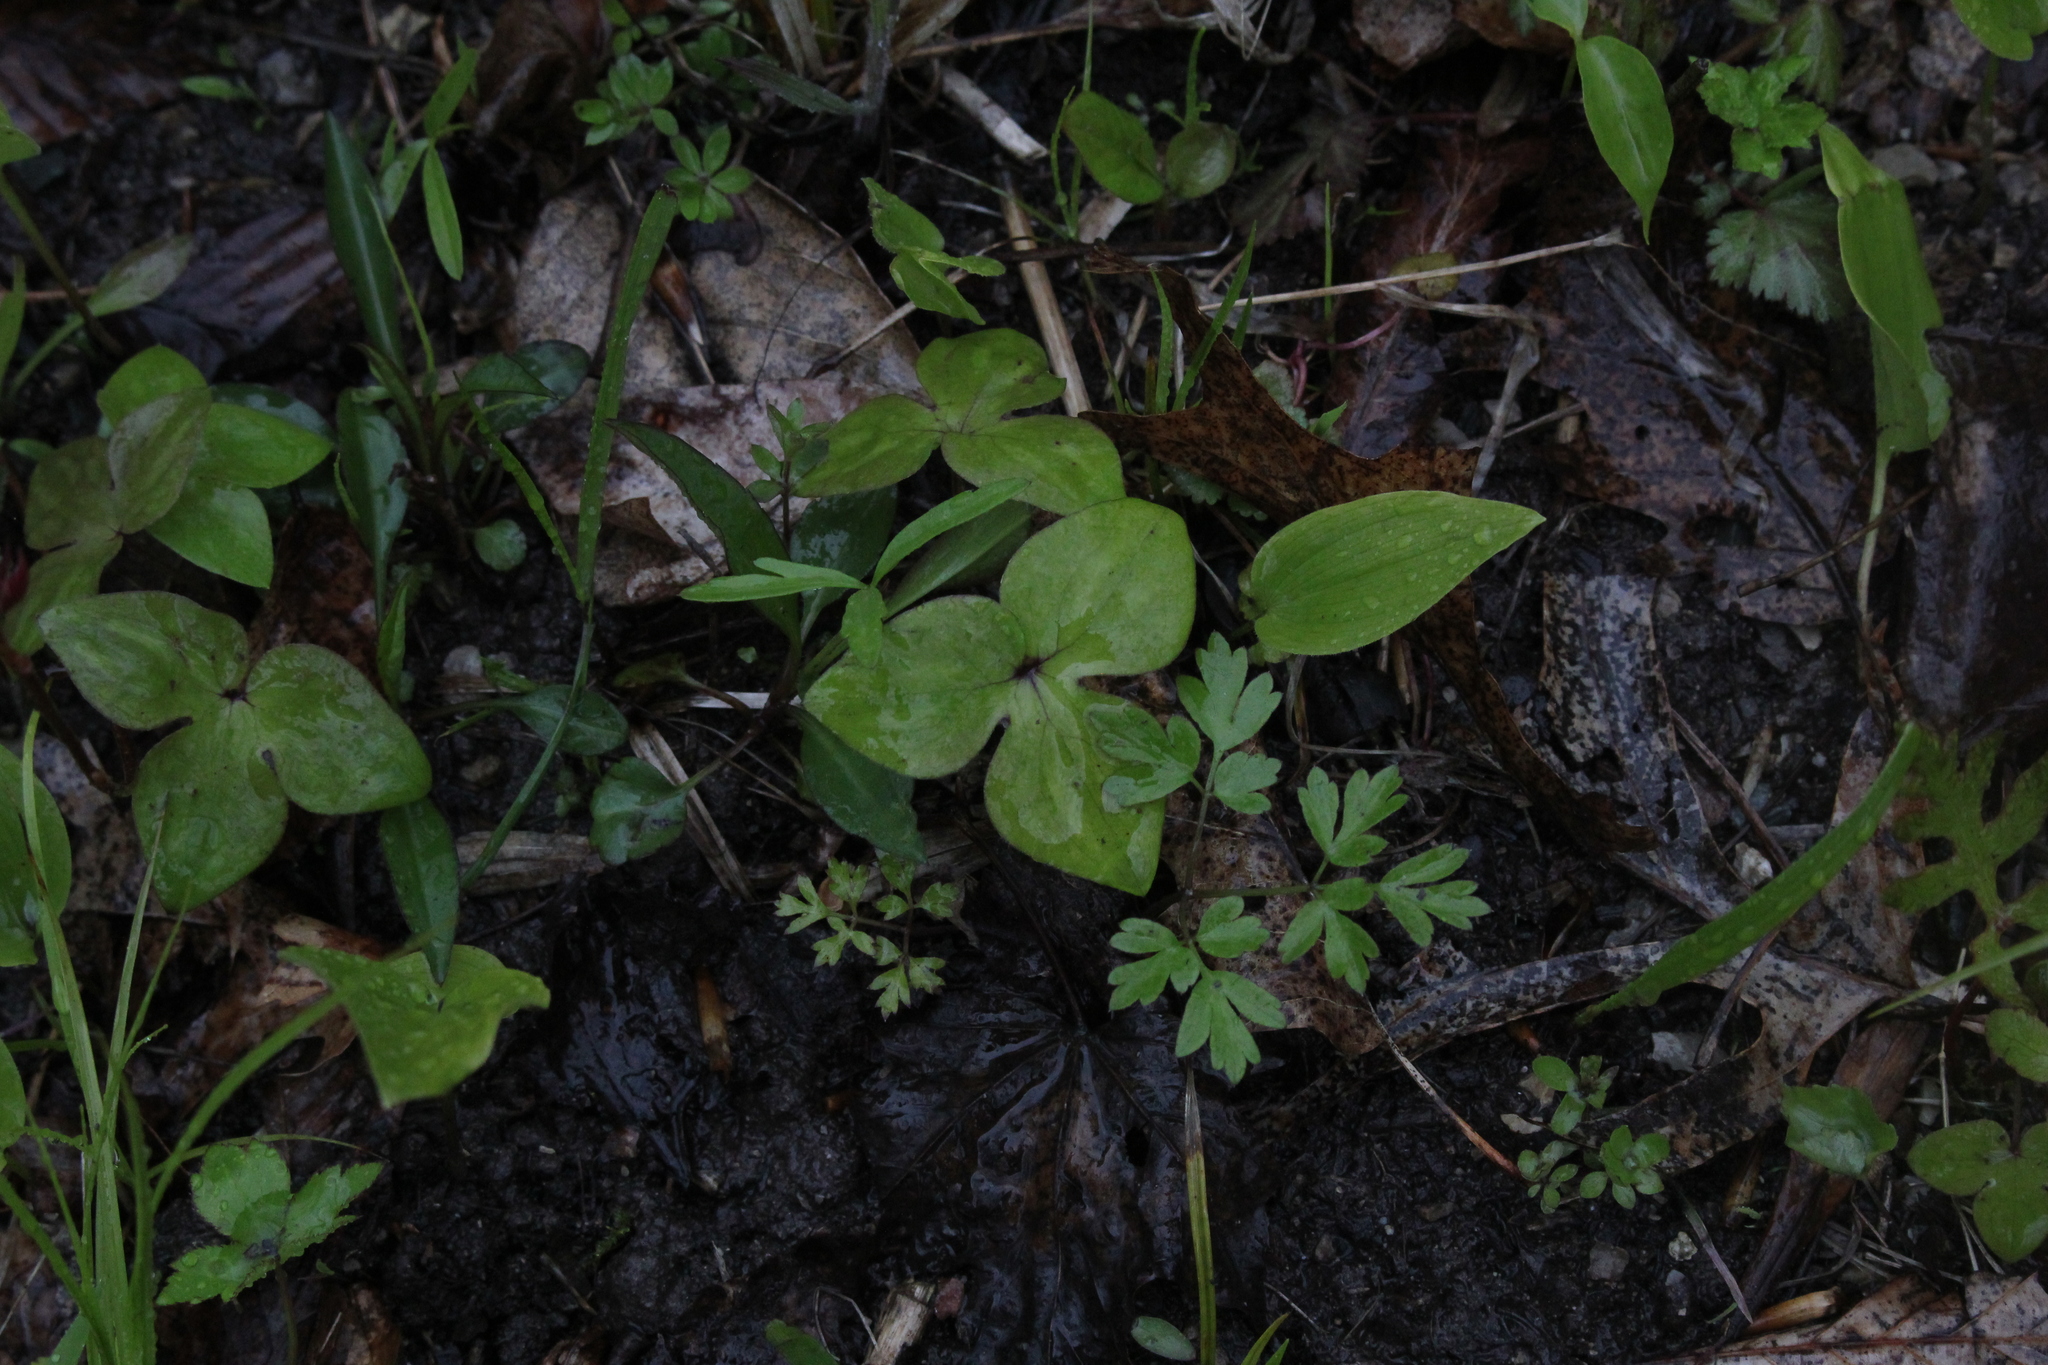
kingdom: Plantae
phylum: Tracheophyta
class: Magnoliopsida
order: Ranunculales
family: Ranunculaceae
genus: Hepatica
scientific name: Hepatica acutiloba
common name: Sharp-lobed hepatica
